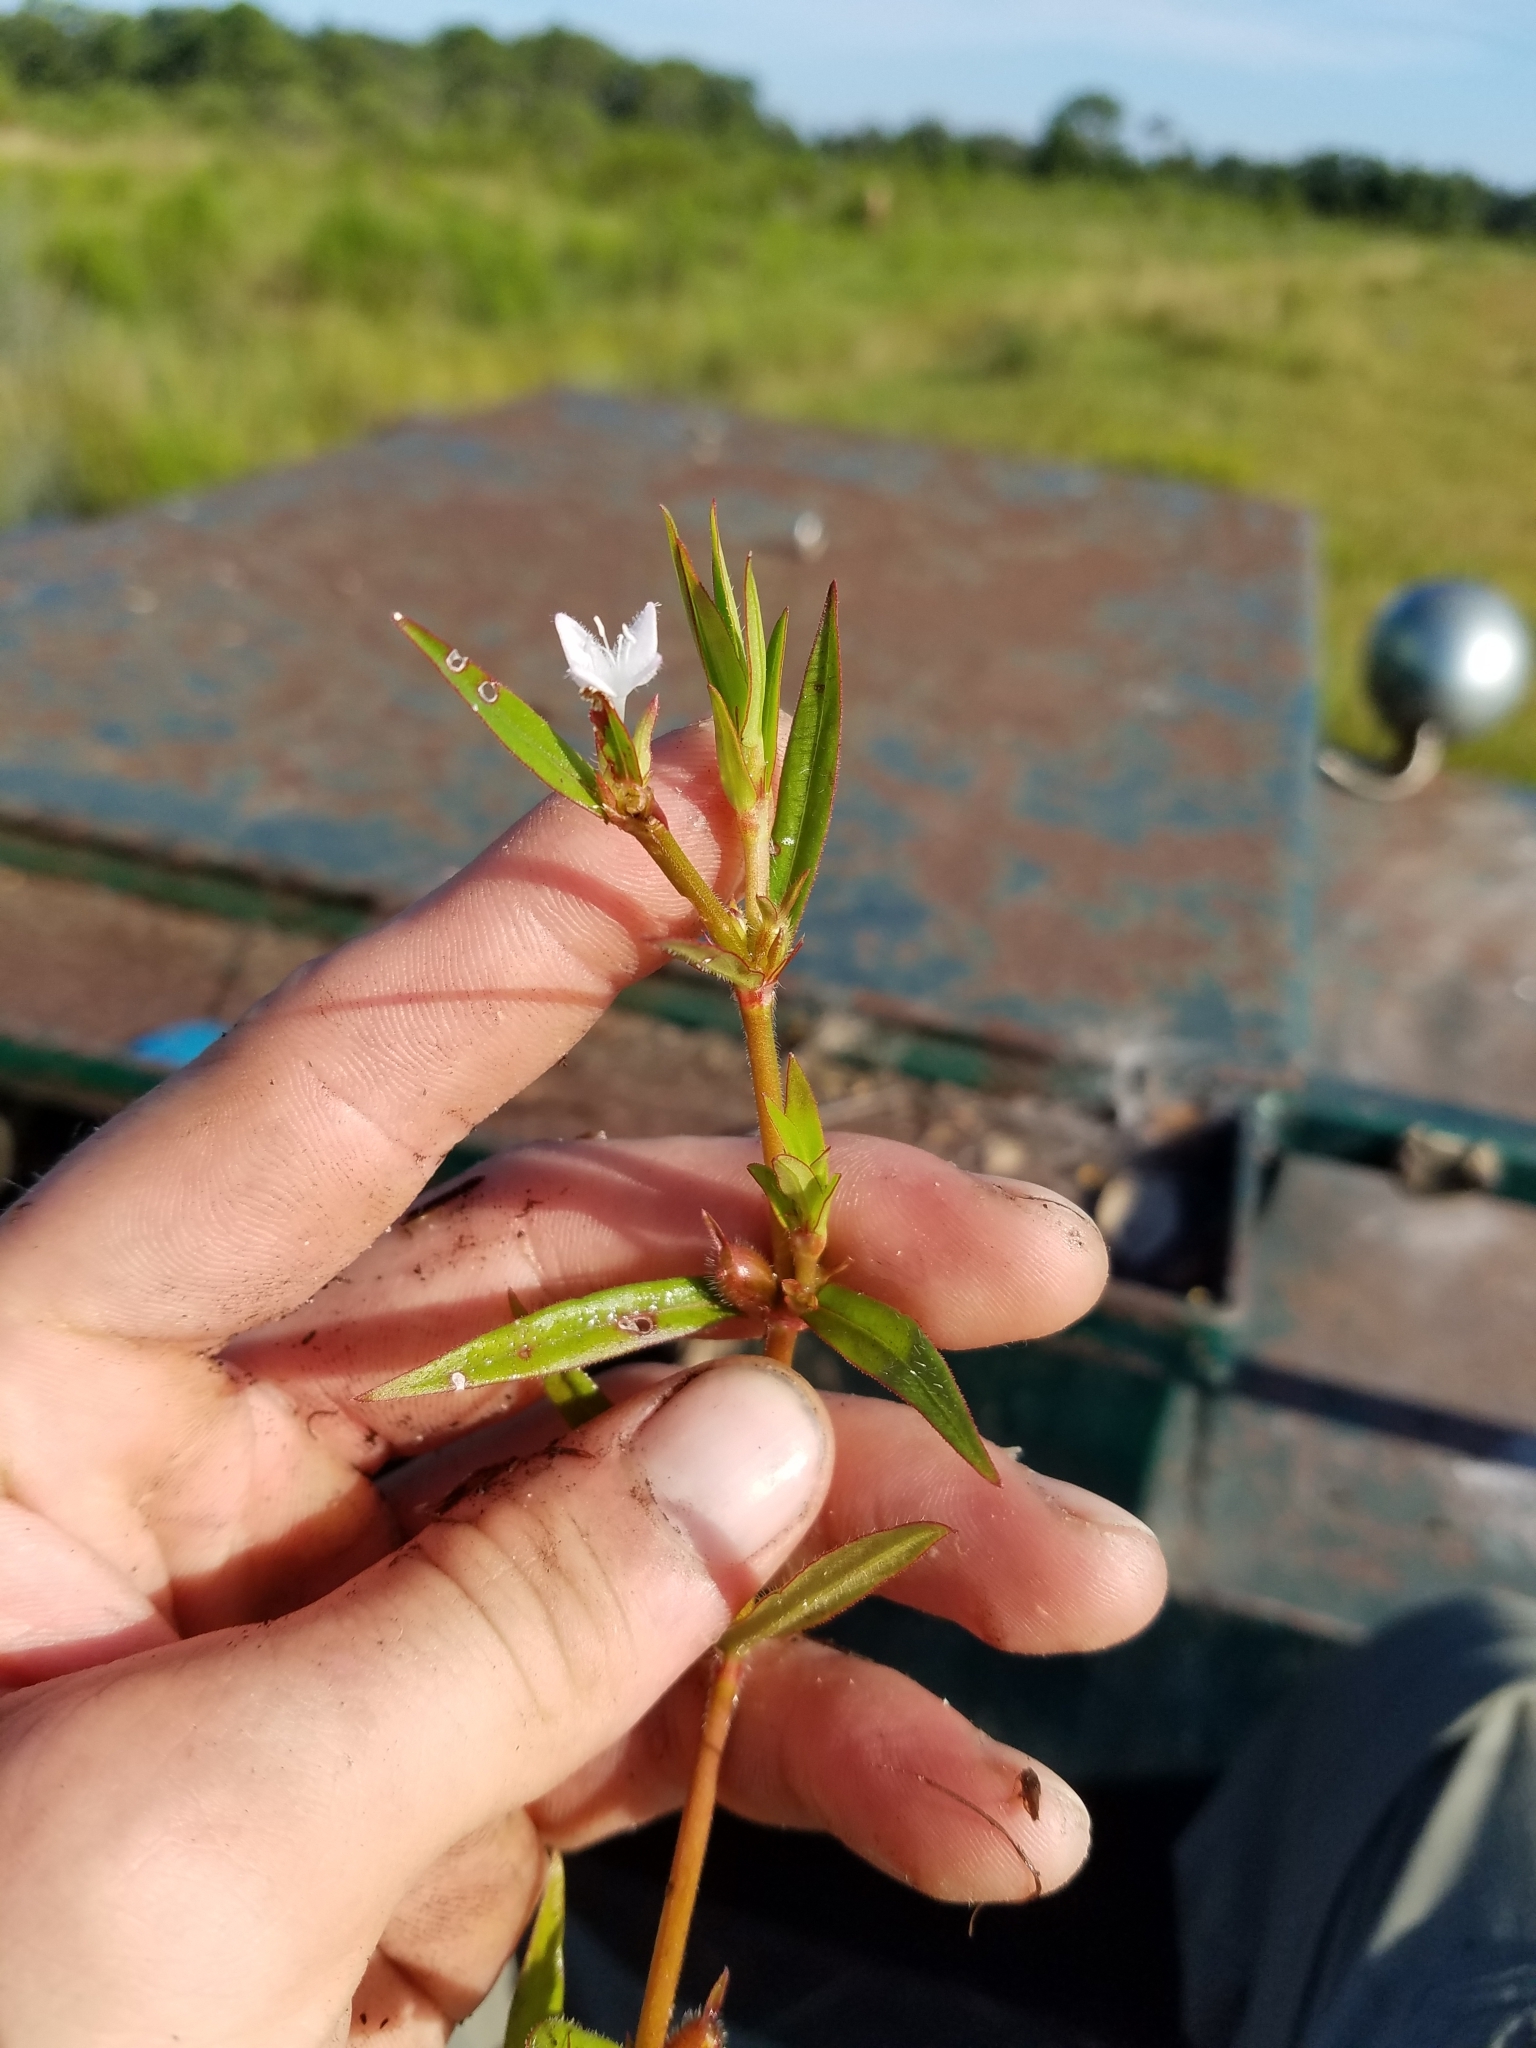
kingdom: Plantae
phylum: Tracheophyta
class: Magnoliopsida
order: Gentianales
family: Rubiaceae
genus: Diodia
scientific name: Diodia virginiana
